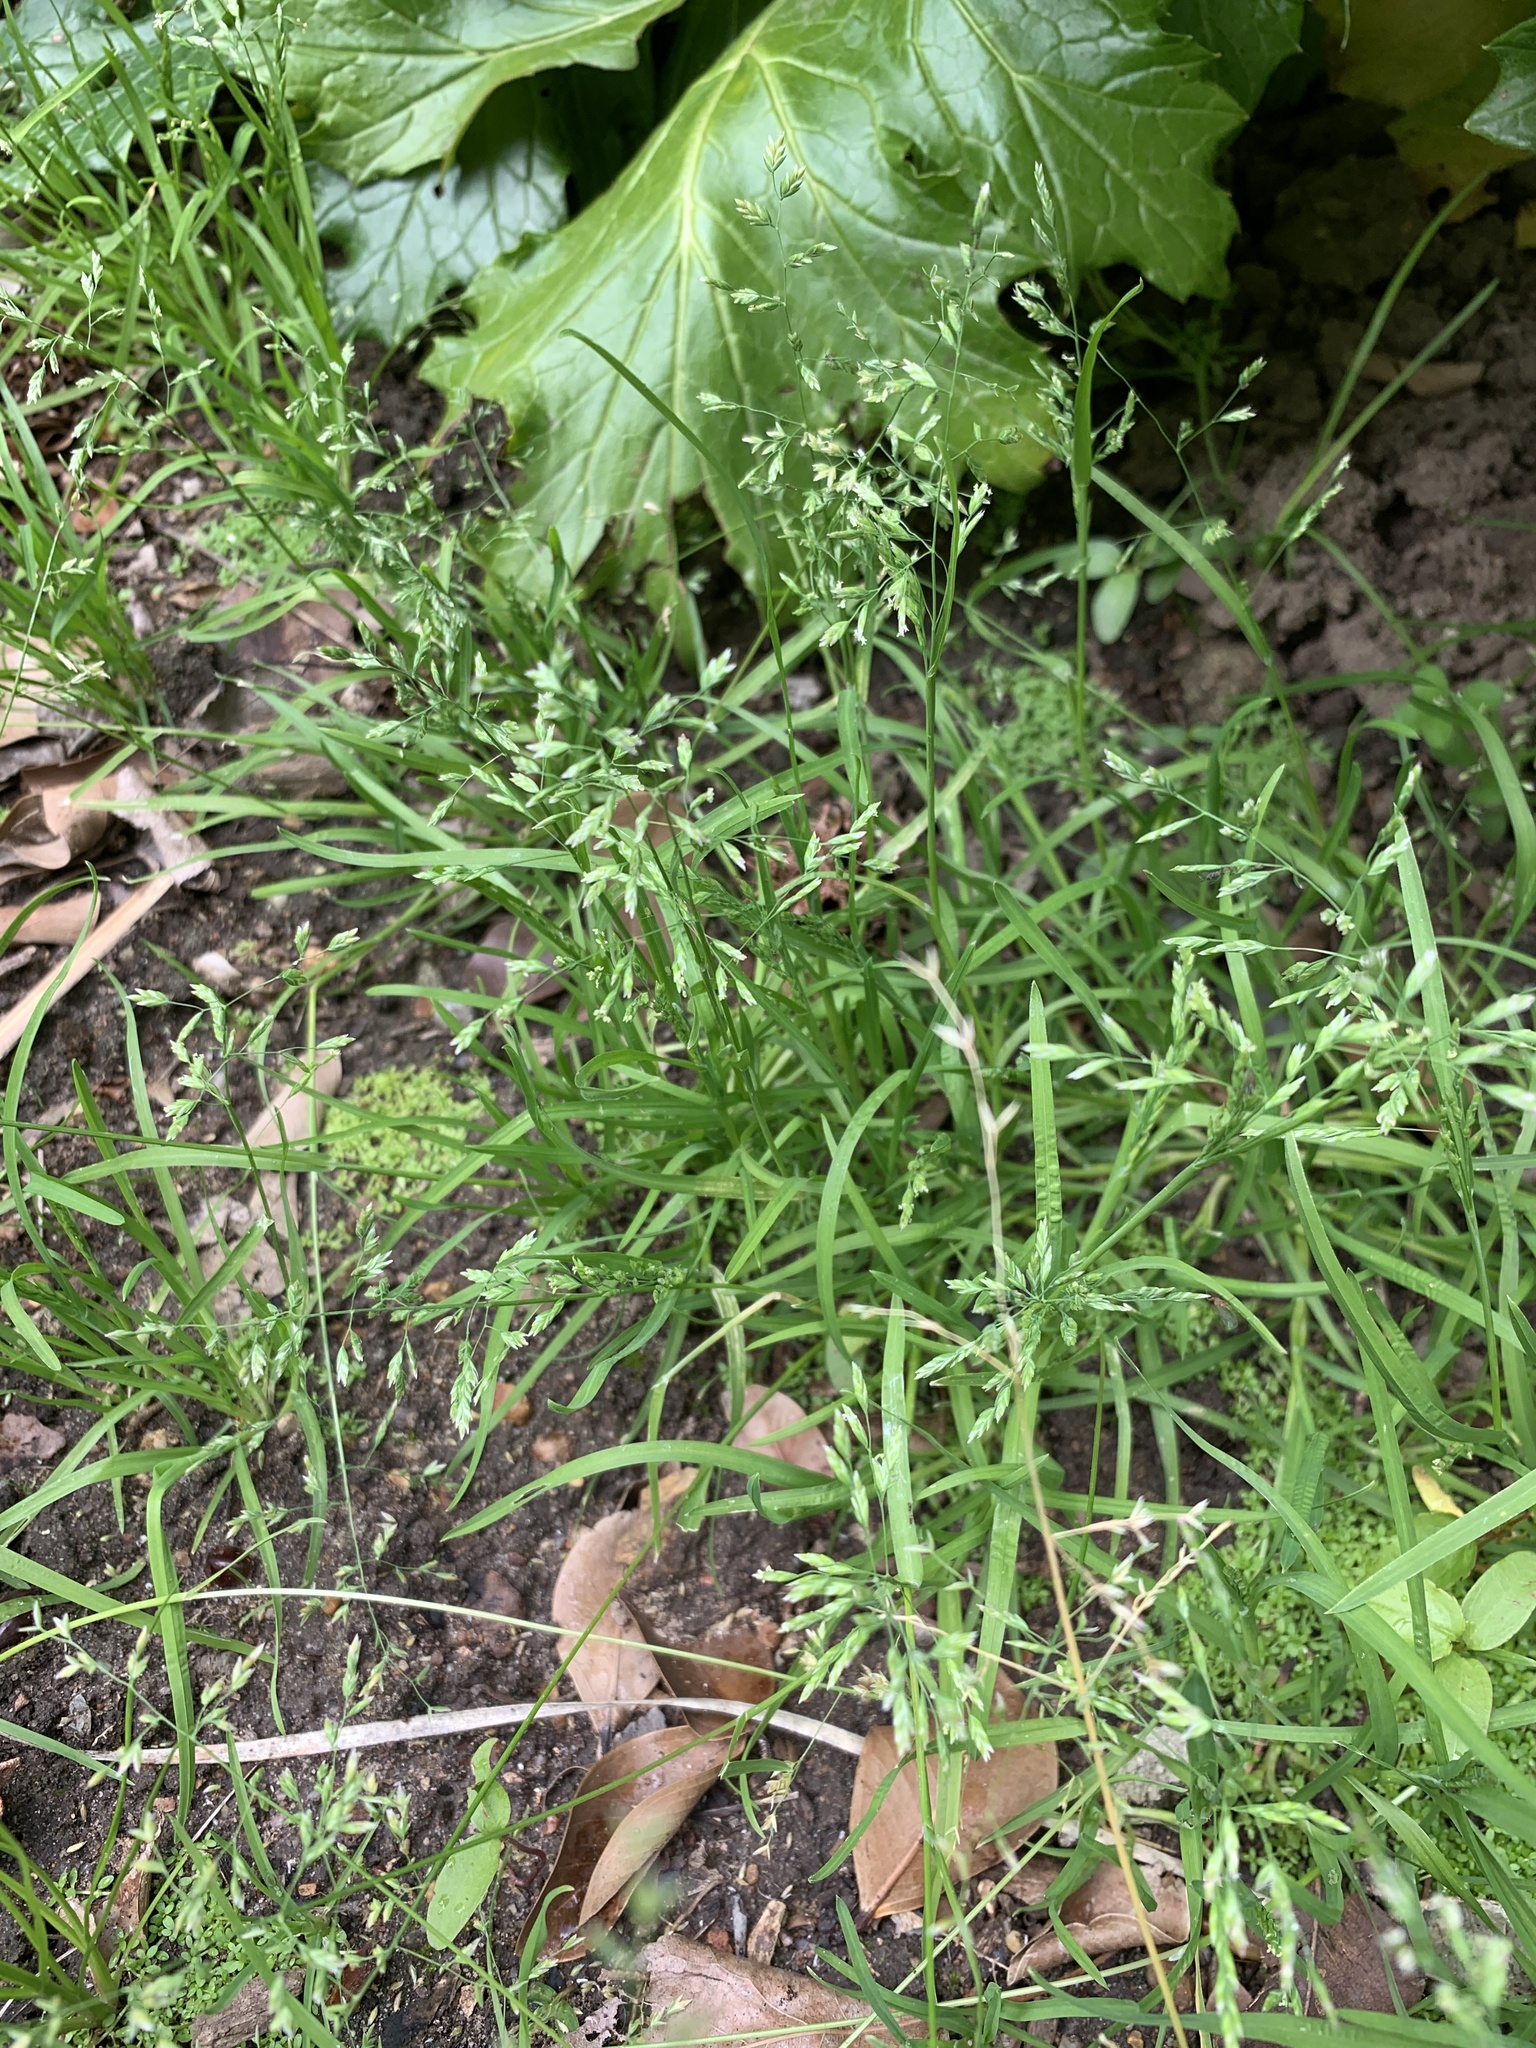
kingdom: Plantae
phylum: Tracheophyta
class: Liliopsida
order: Poales
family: Poaceae
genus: Poa
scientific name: Poa annua
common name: Annual bluegrass
